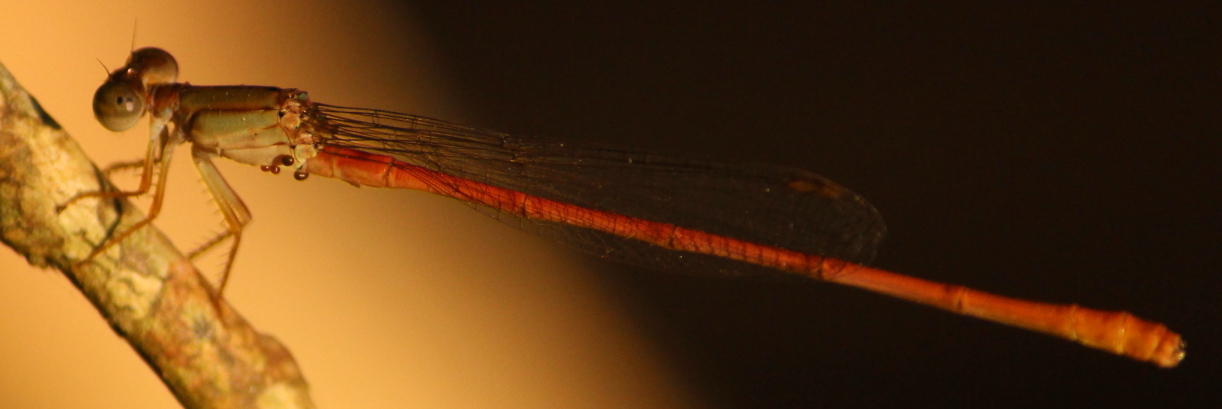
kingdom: Animalia
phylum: Arthropoda
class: Insecta
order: Odonata
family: Coenagrionidae
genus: Ceriagrion
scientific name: Ceriagrion glabrum
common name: Common pond damsel
